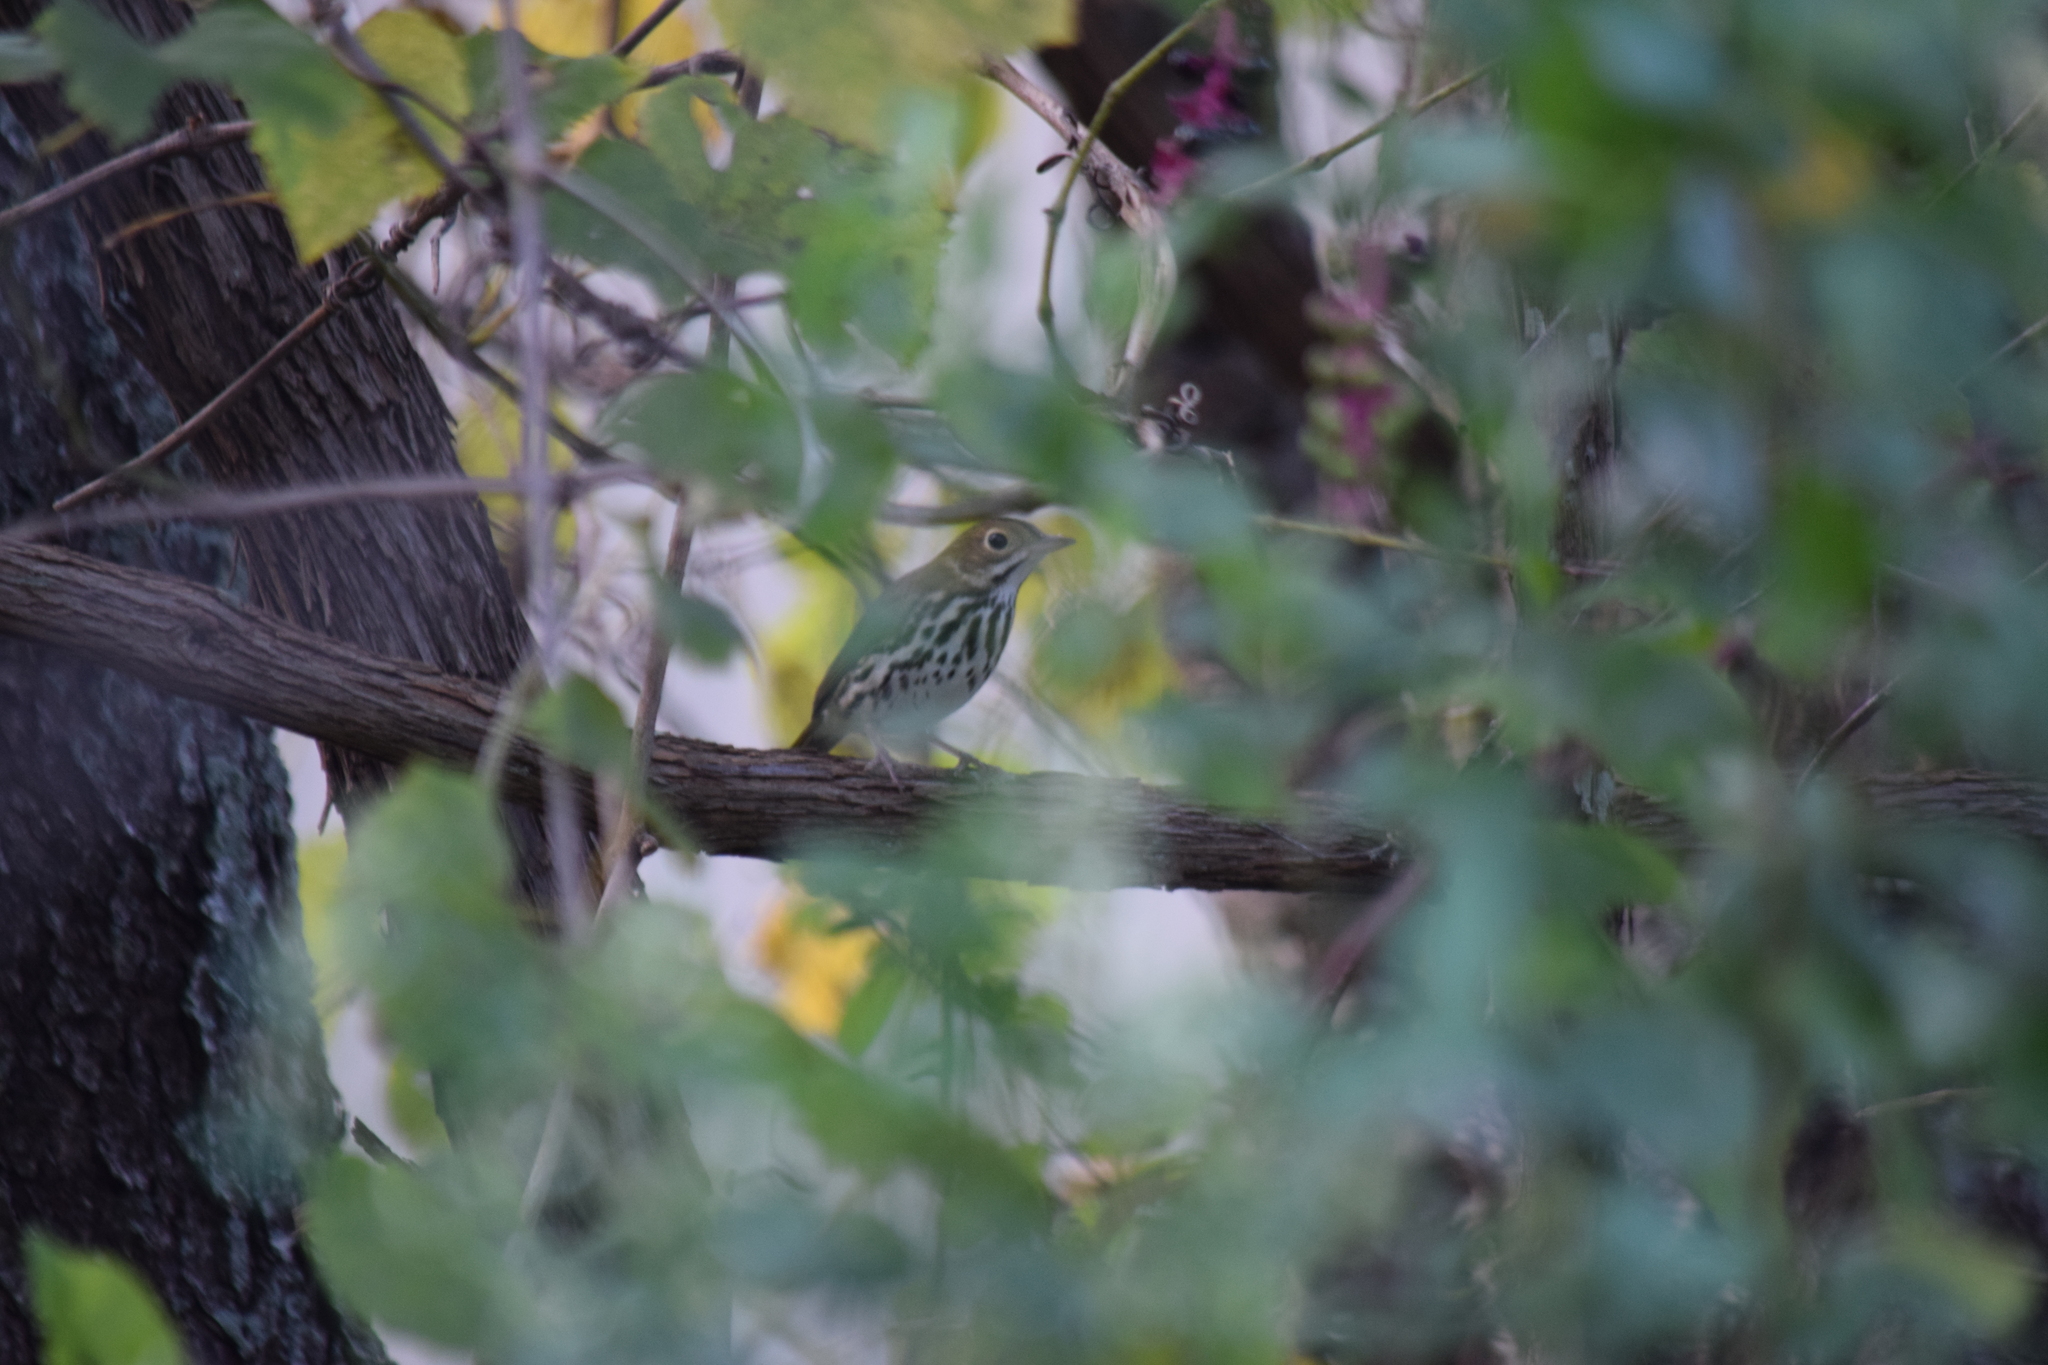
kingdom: Animalia
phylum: Chordata
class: Aves
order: Passeriformes
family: Parulidae
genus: Seiurus
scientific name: Seiurus aurocapilla
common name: Ovenbird
